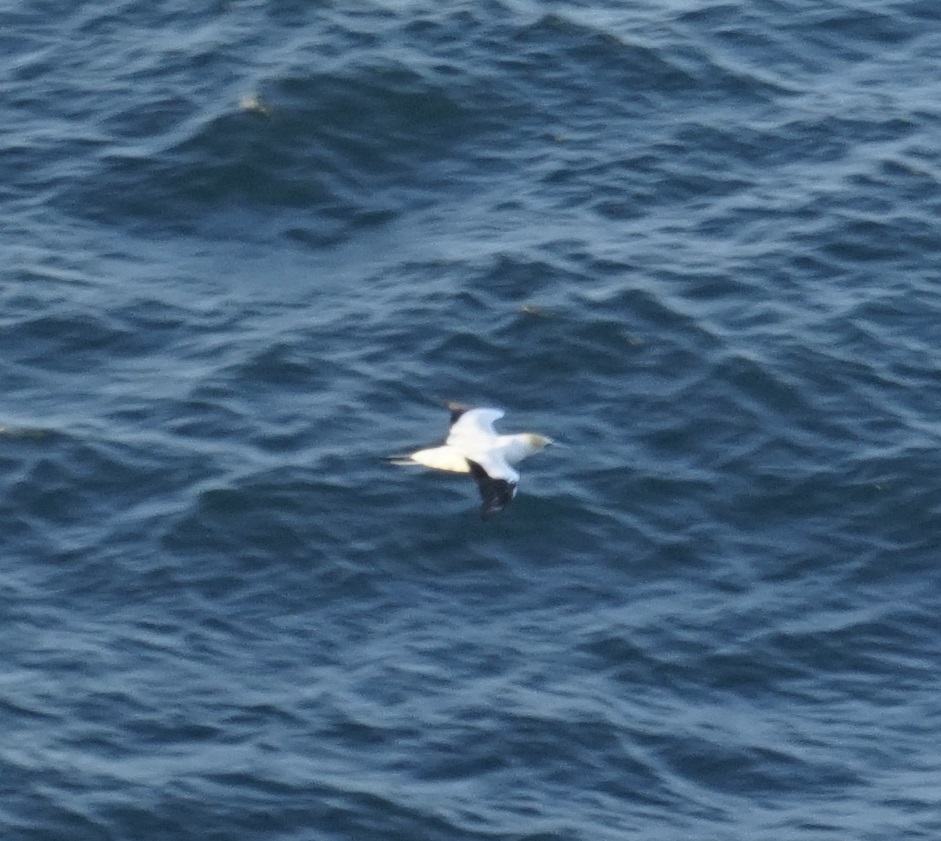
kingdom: Animalia
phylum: Chordata
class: Aves
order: Suliformes
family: Sulidae
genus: Morus
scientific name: Morus serrator
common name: Australasian gannet
